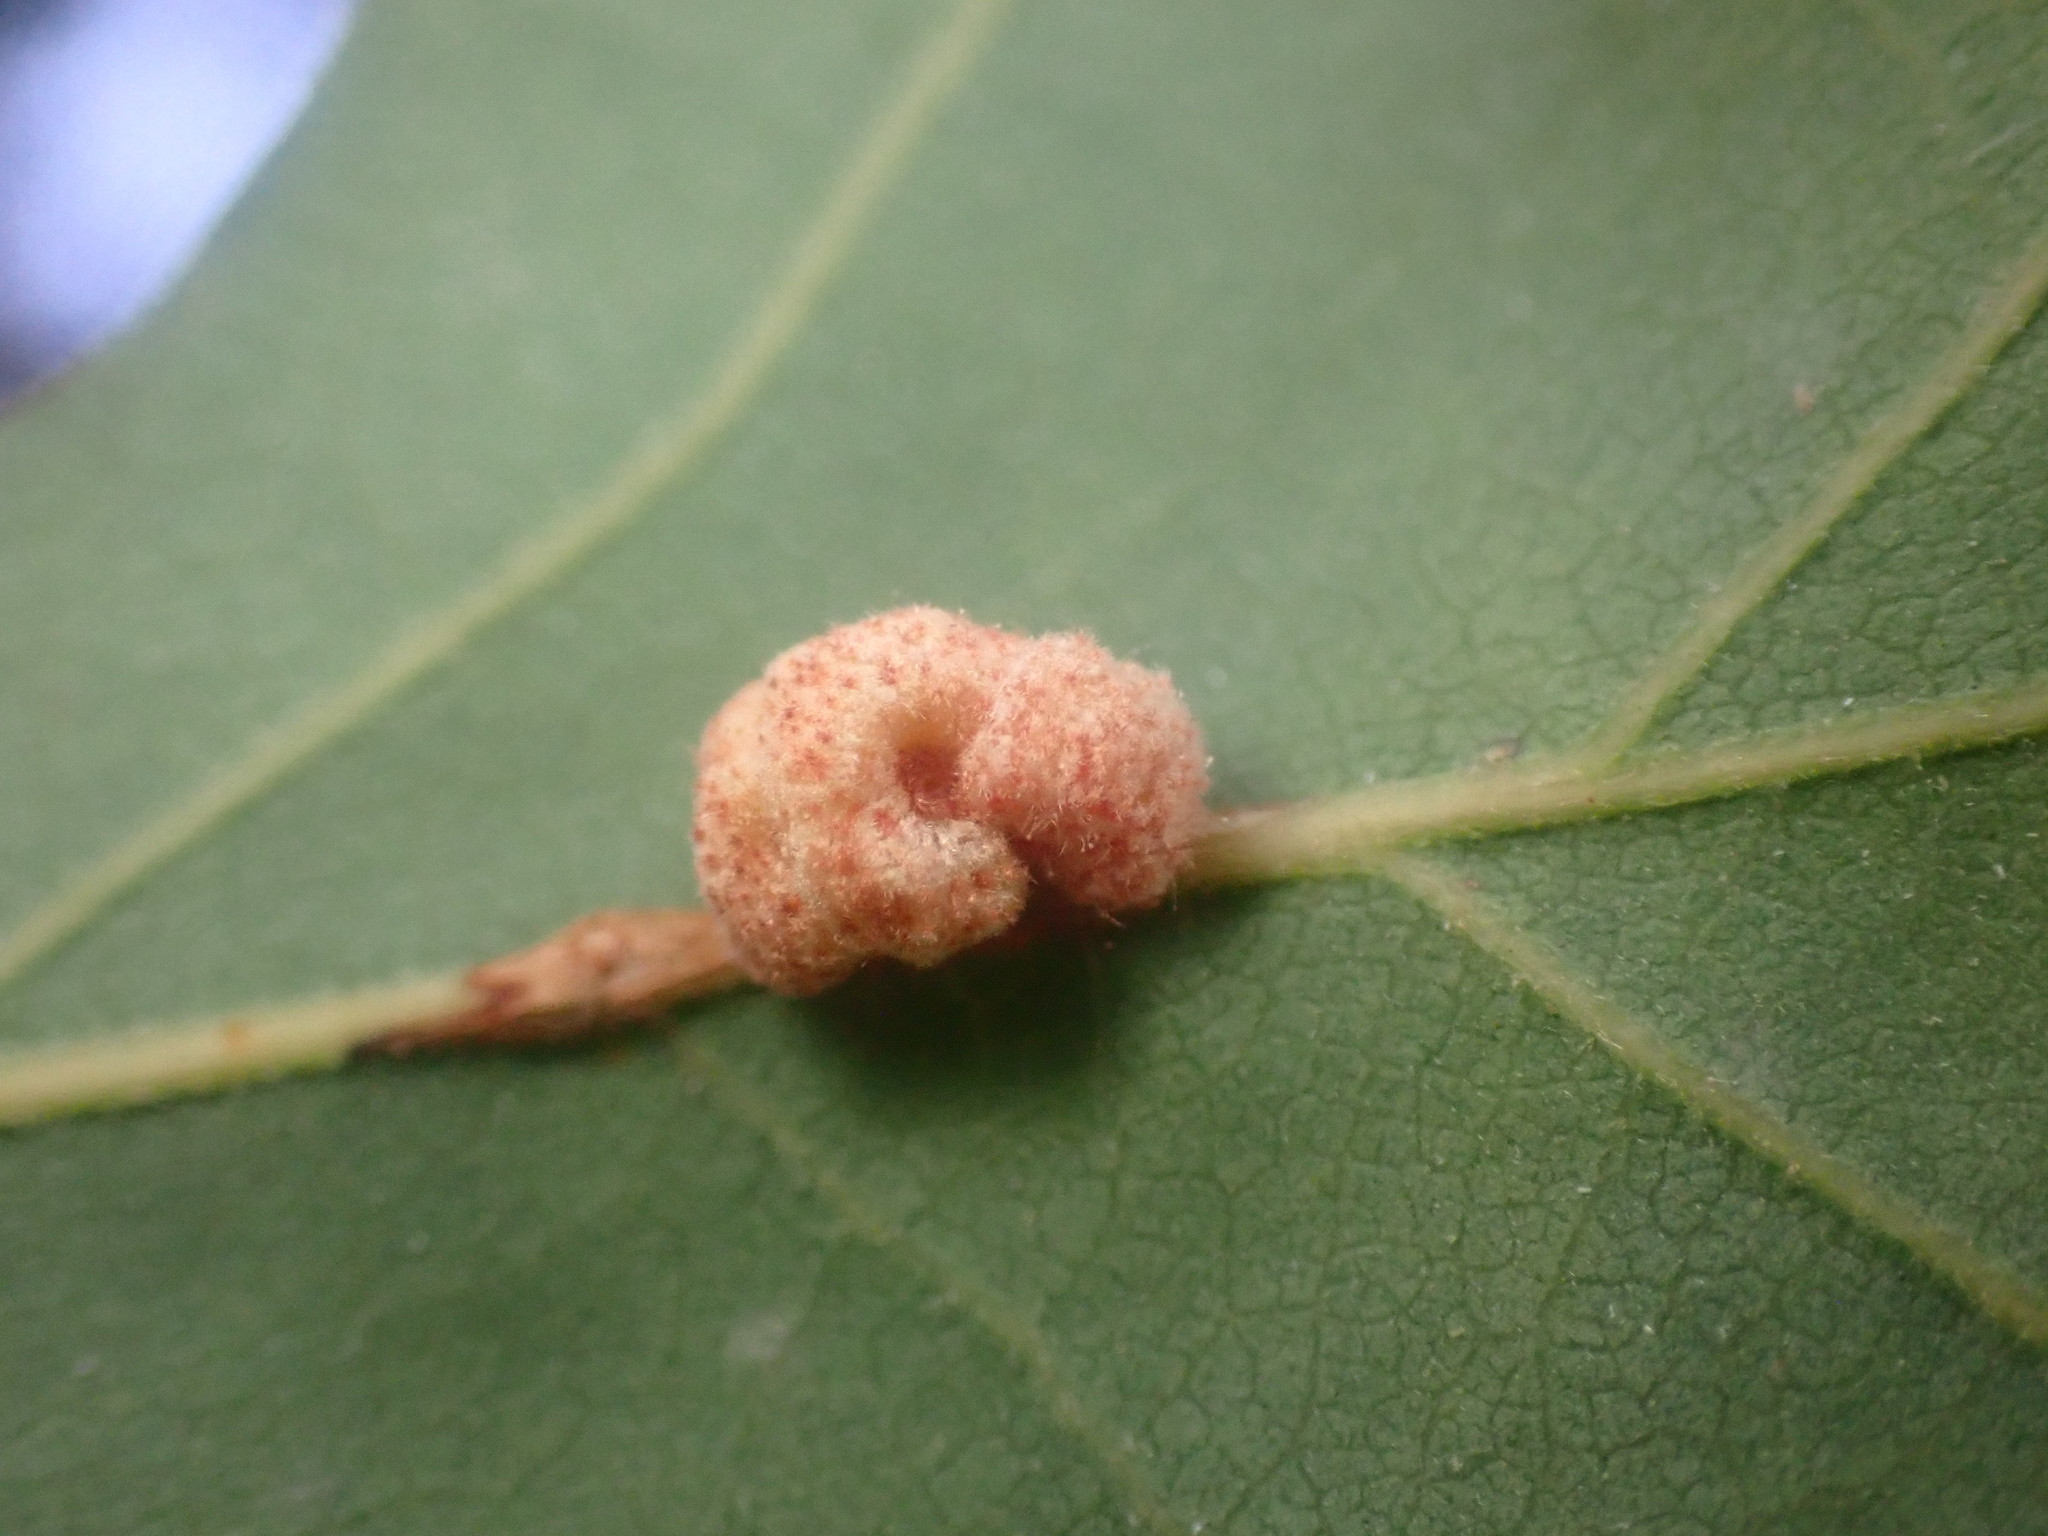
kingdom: Animalia
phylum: Arthropoda
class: Insecta
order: Hymenoptera
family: Cynipidae
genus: Andricus
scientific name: Andricus
